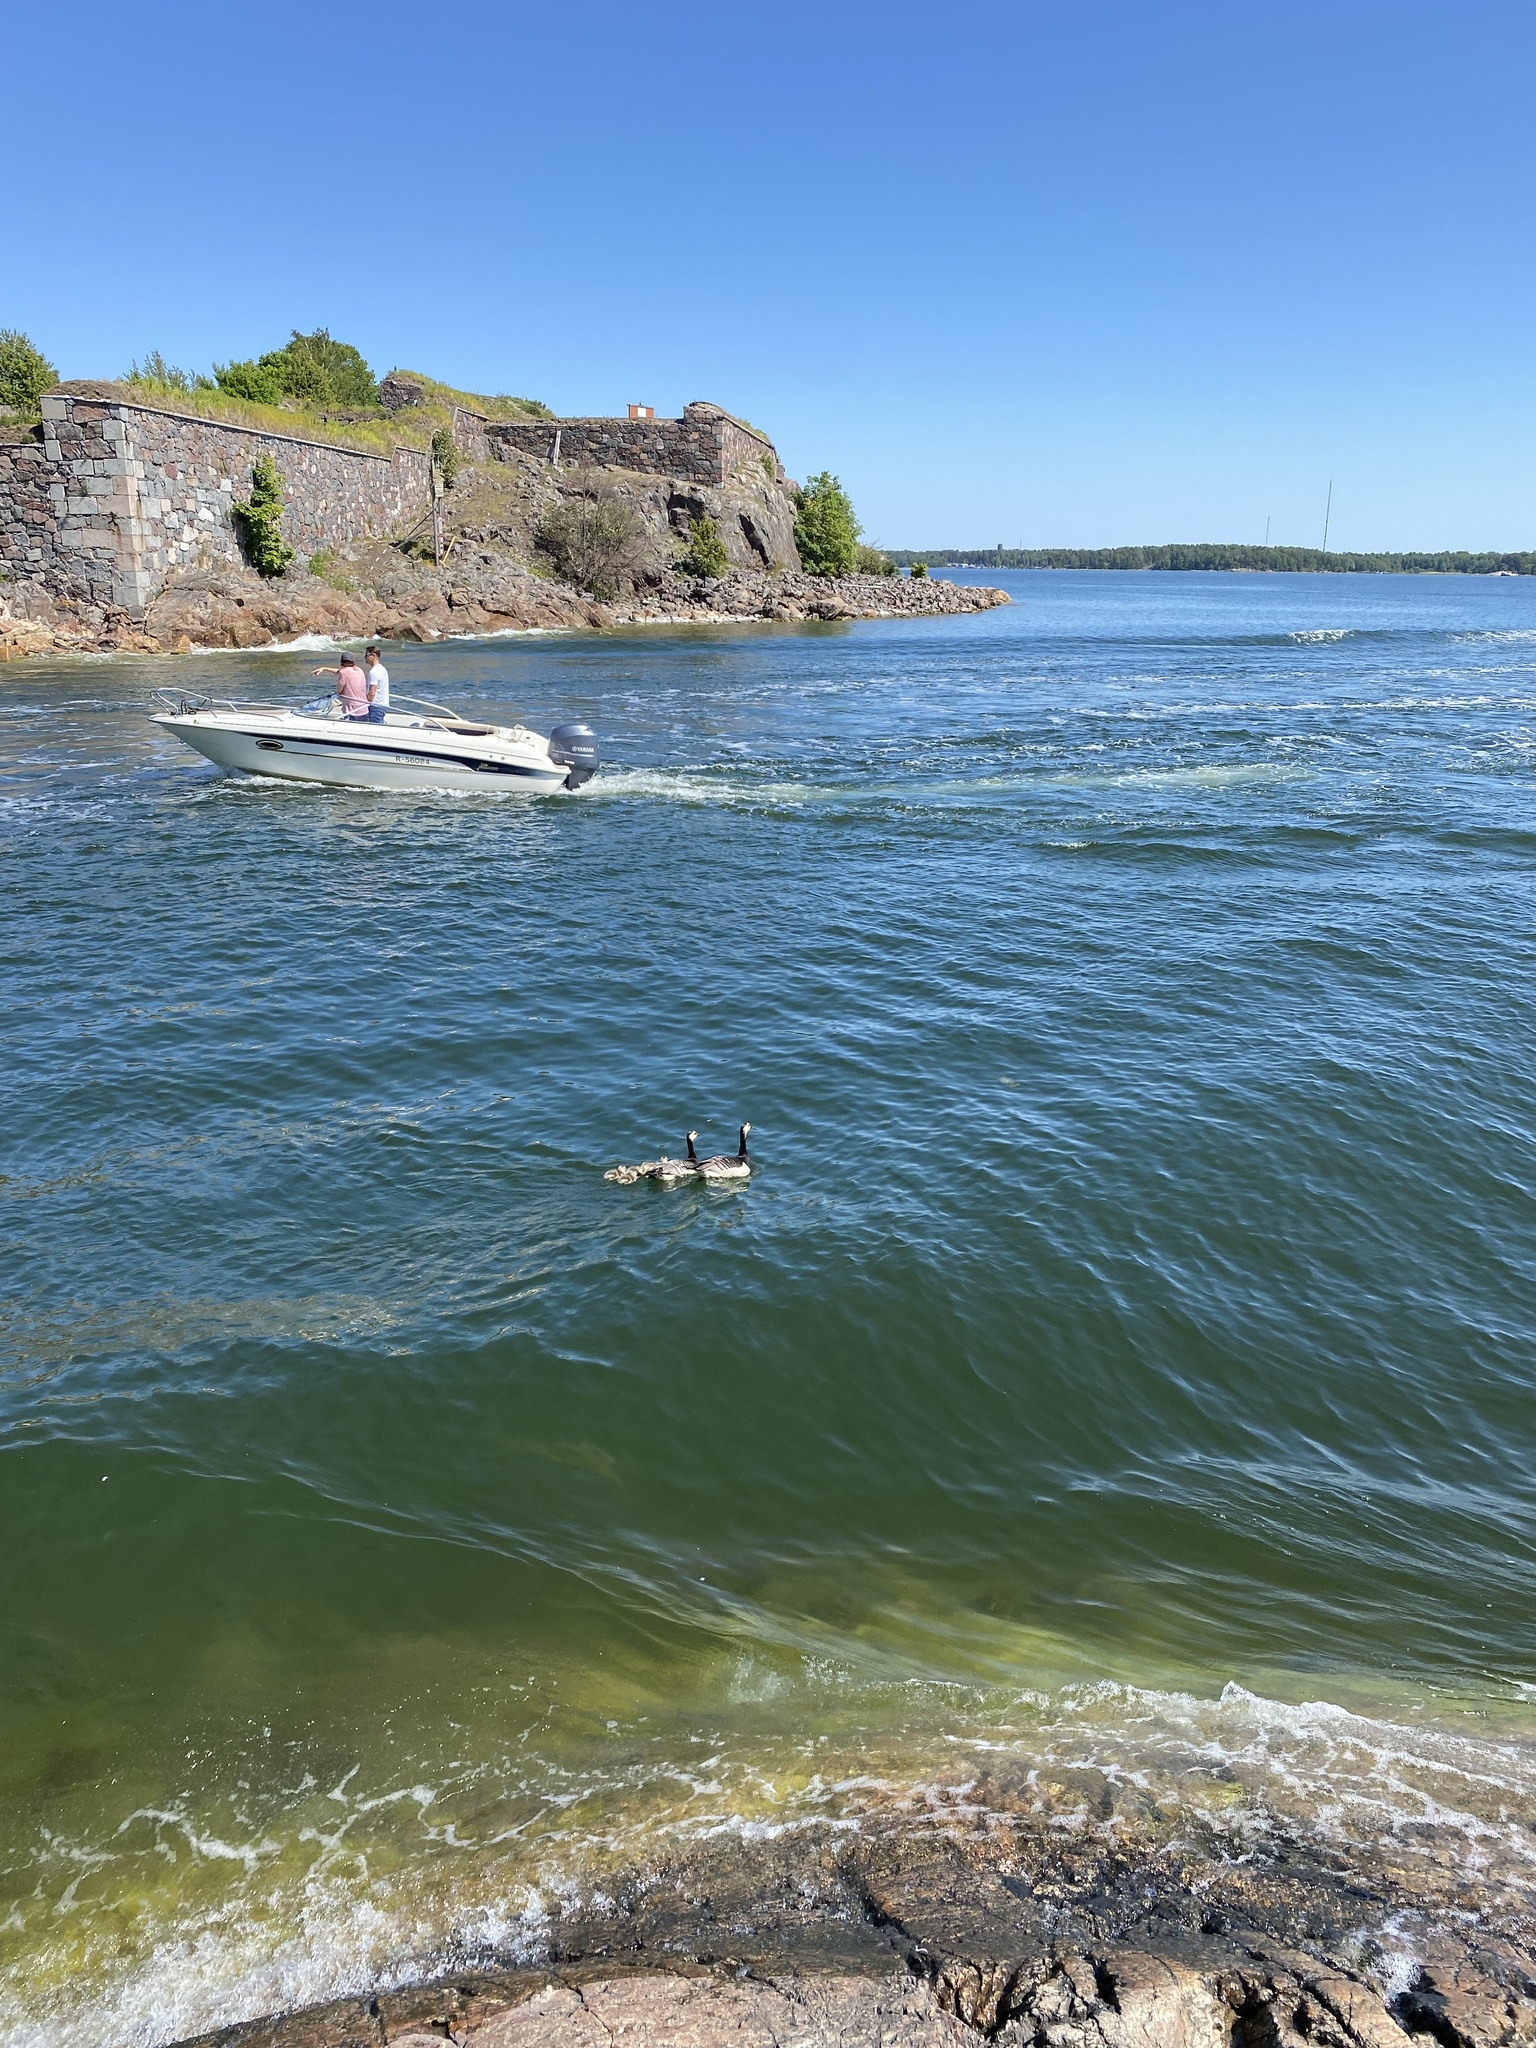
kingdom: Animalia
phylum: Chordata
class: Aves
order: Anseriformes
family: Anatidae
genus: Branta
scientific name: Branta leucopsis
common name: Barnacle goose
